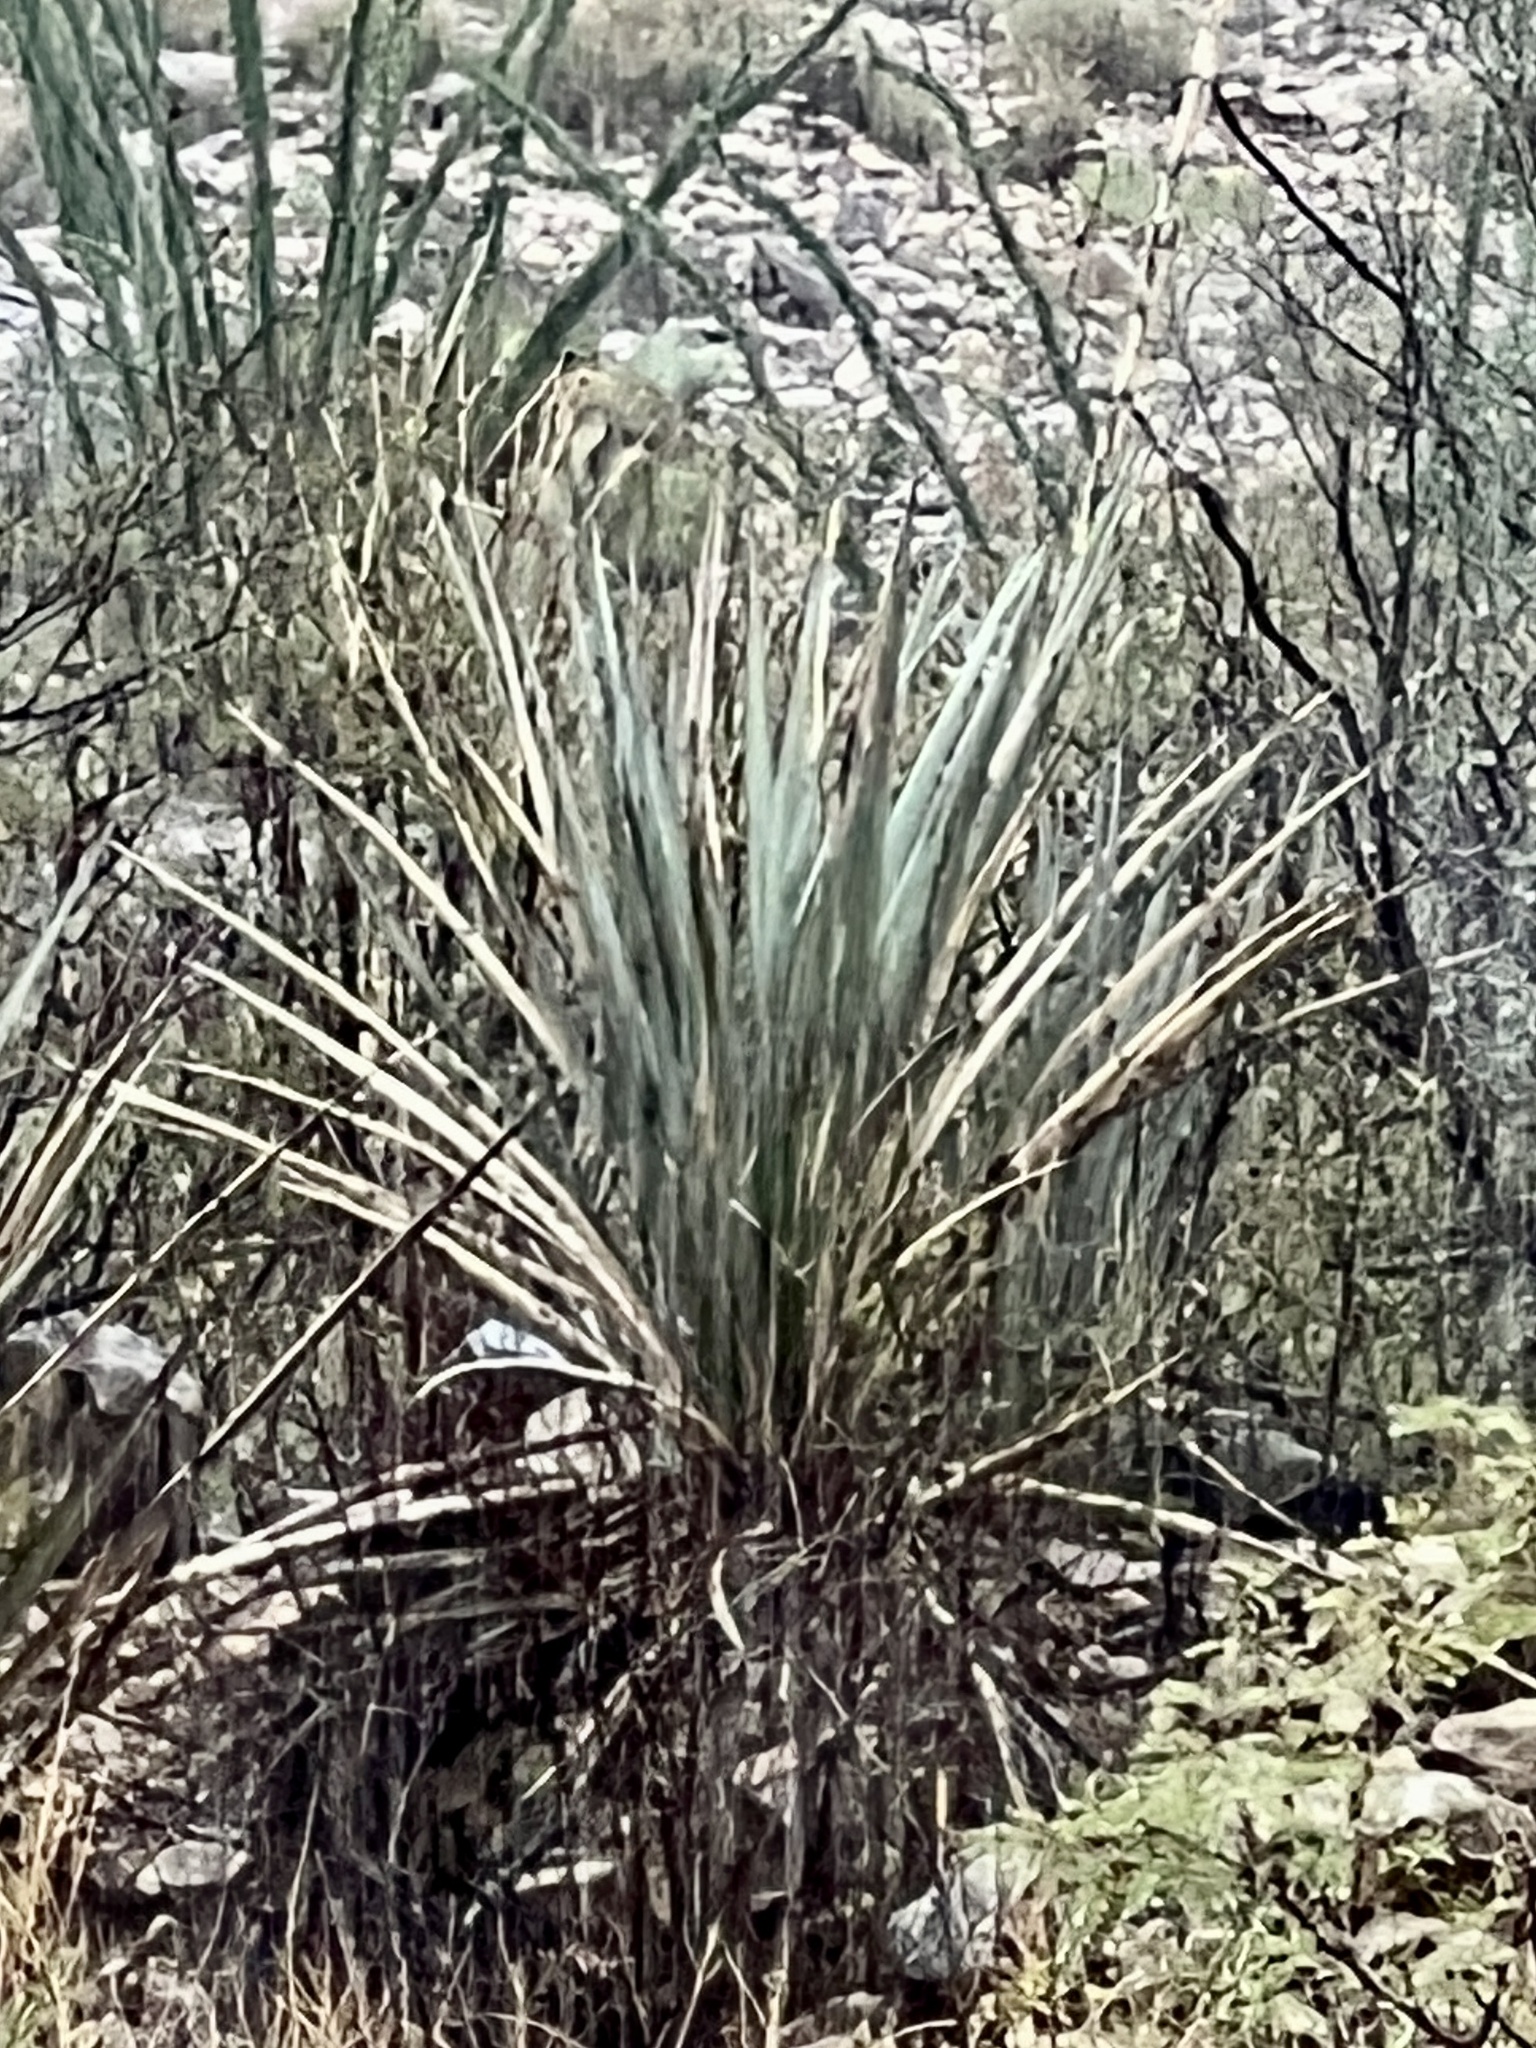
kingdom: Plantae
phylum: Tracheophyta
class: Liliopsida
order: Asparagales
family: Asparagaceae
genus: Yucca
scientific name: Yucca treculiana
